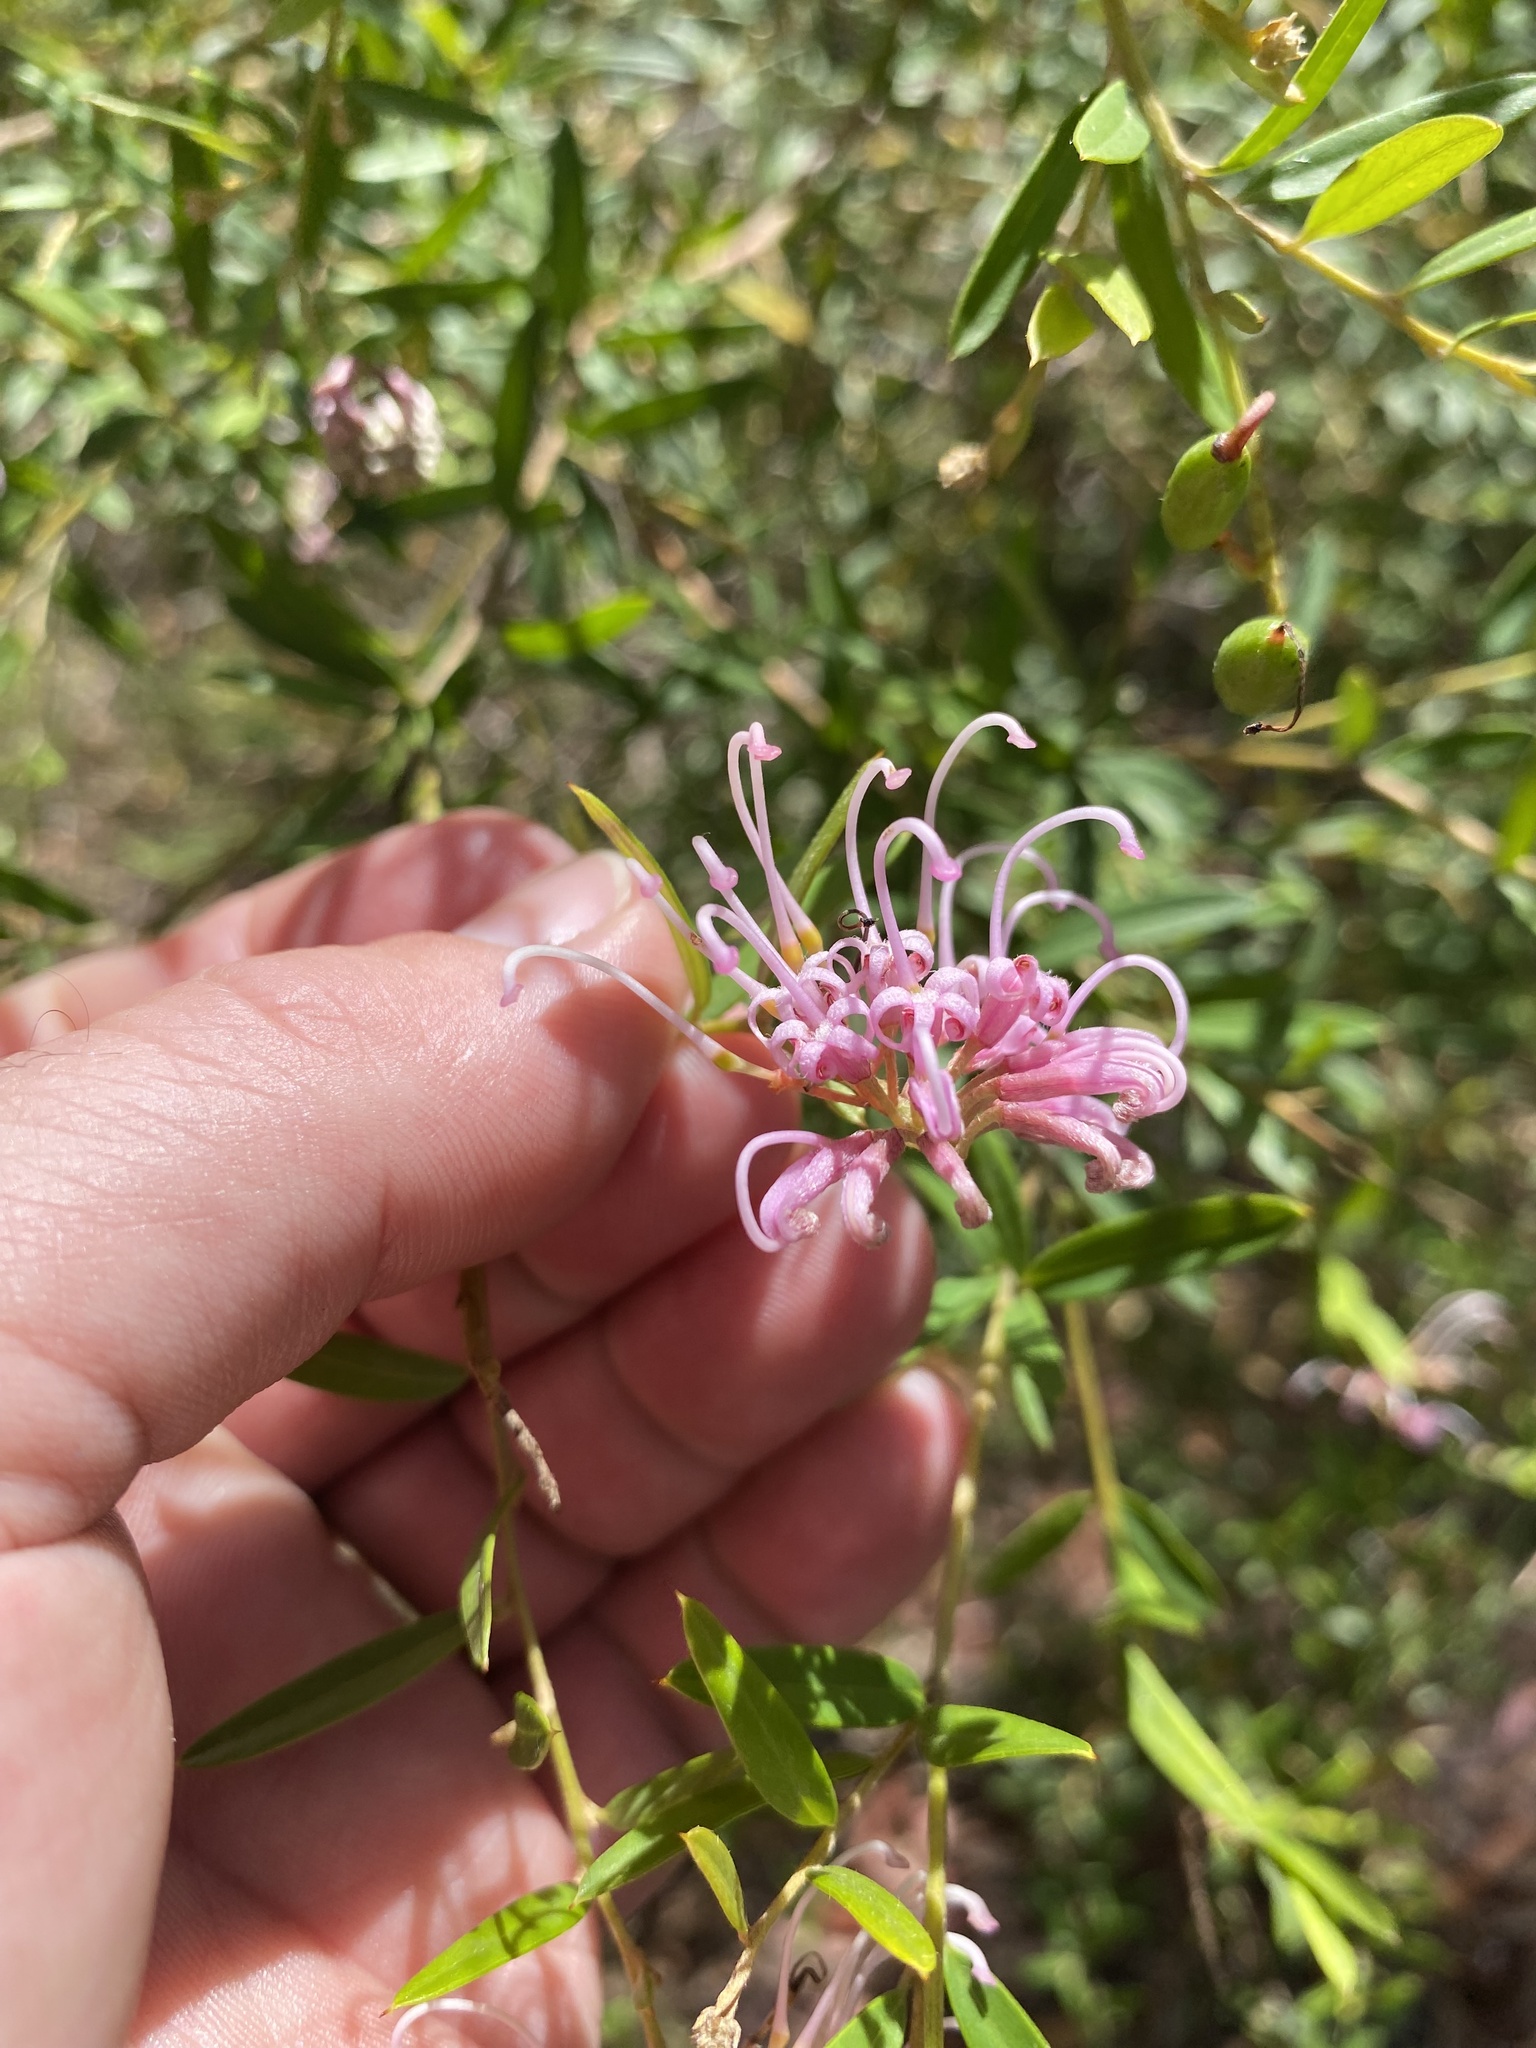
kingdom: Plantae
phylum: Tracheophyta
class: Magnoliopsida
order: Proteales
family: Proteaceae
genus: Grevillea
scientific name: Grevillea sericea
